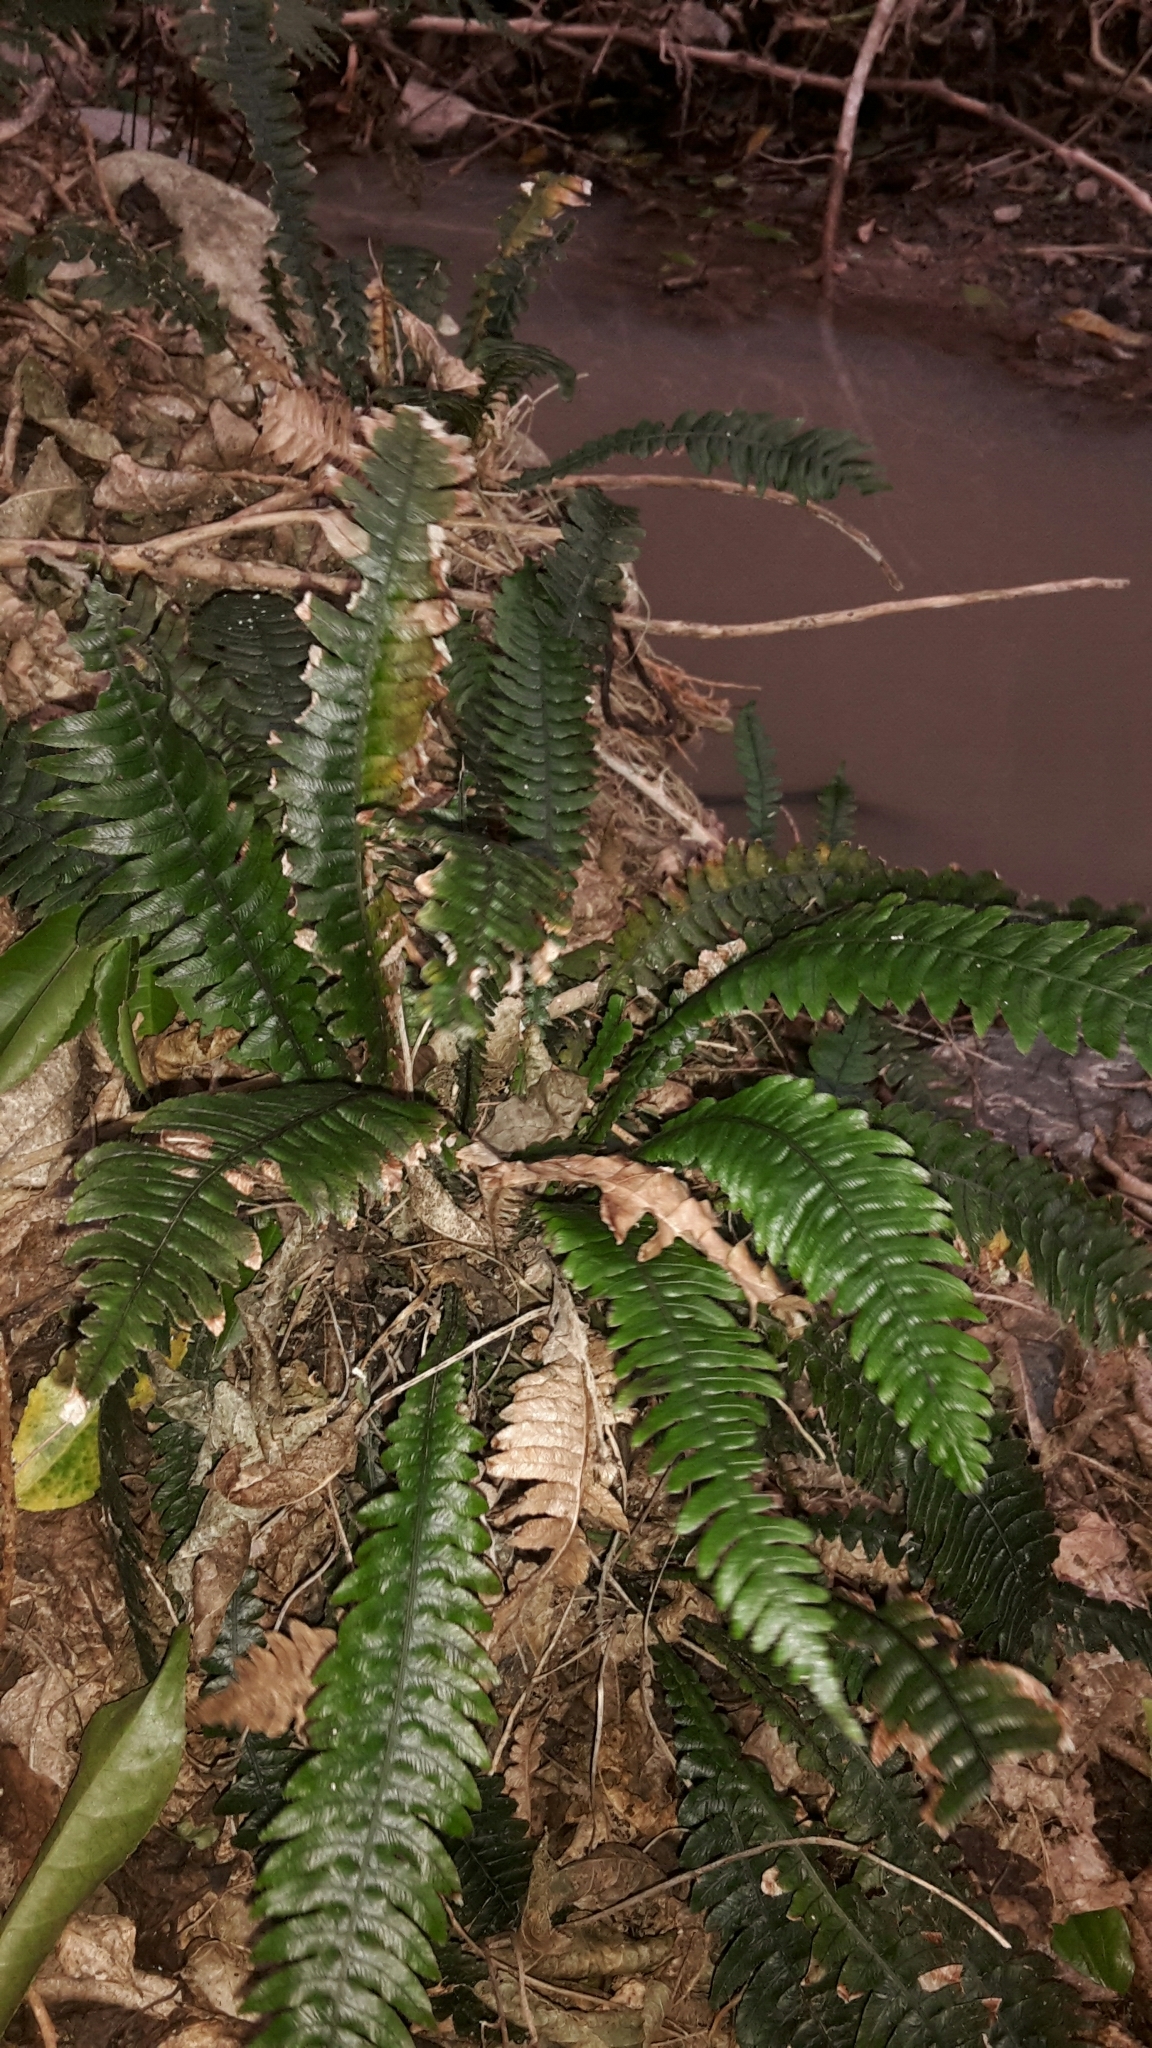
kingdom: Plantae
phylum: Tracheophyta
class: Polypodiopsida
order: Polypodiales
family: Blechnaceae
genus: Austroblechnum
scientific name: Austroblechnum lanceolatum
